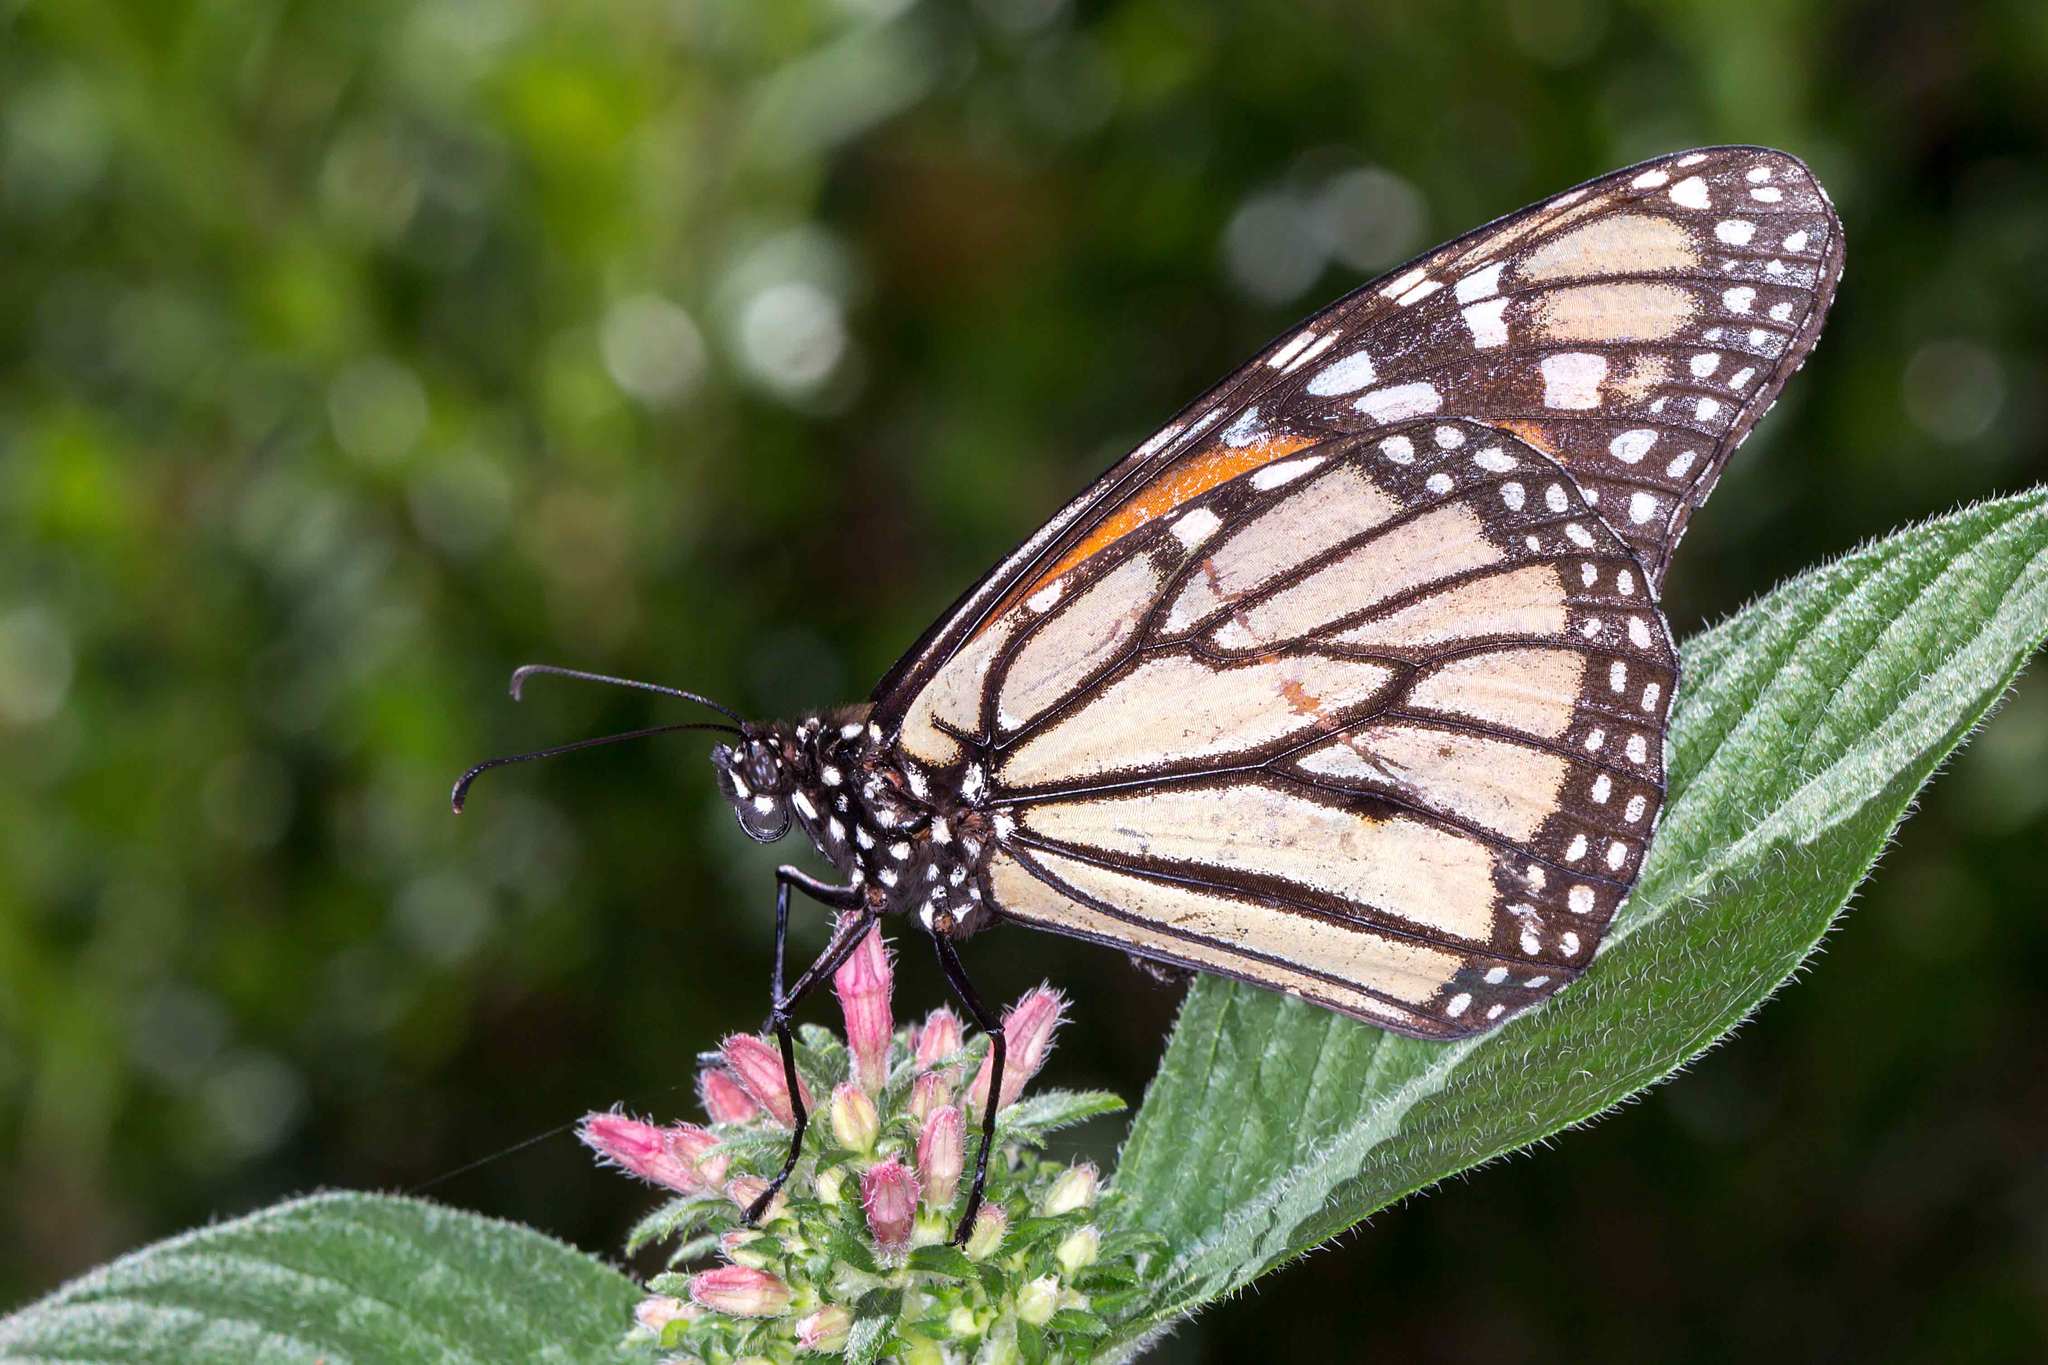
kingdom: Animalia
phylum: Arthropoda
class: Insecta
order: Lepidoptera
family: Nymphalidae
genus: Danaus
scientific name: Danaus plexippus
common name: Monarch
